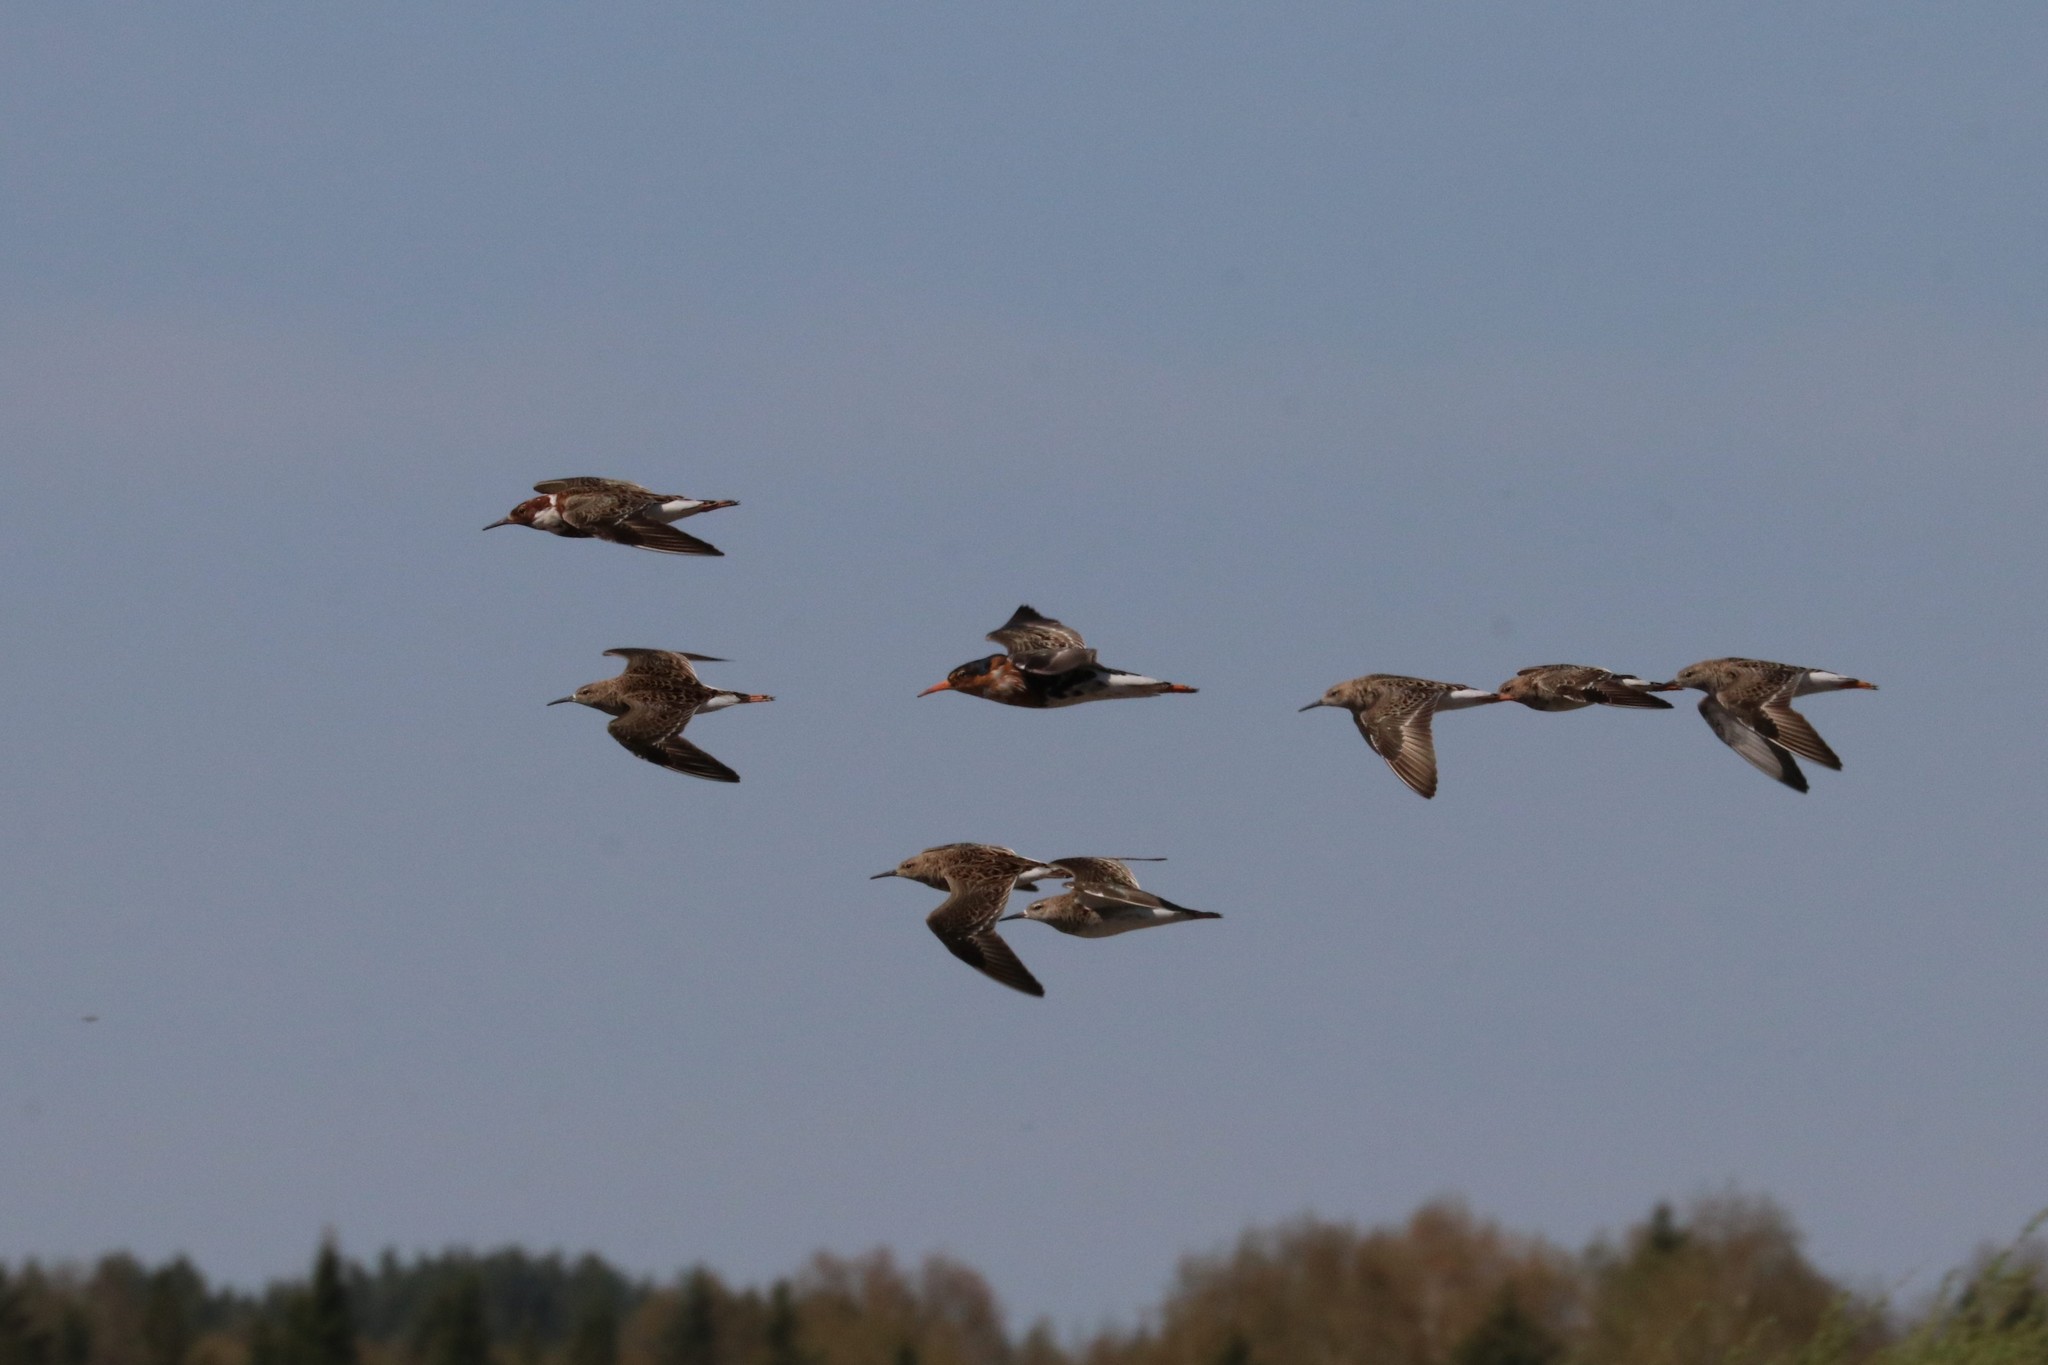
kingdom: Animalia
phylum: Chordata
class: Aves
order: Charadriiformes
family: Scolopacidae
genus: Calidris
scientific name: Calidris pugnax
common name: Ruff
